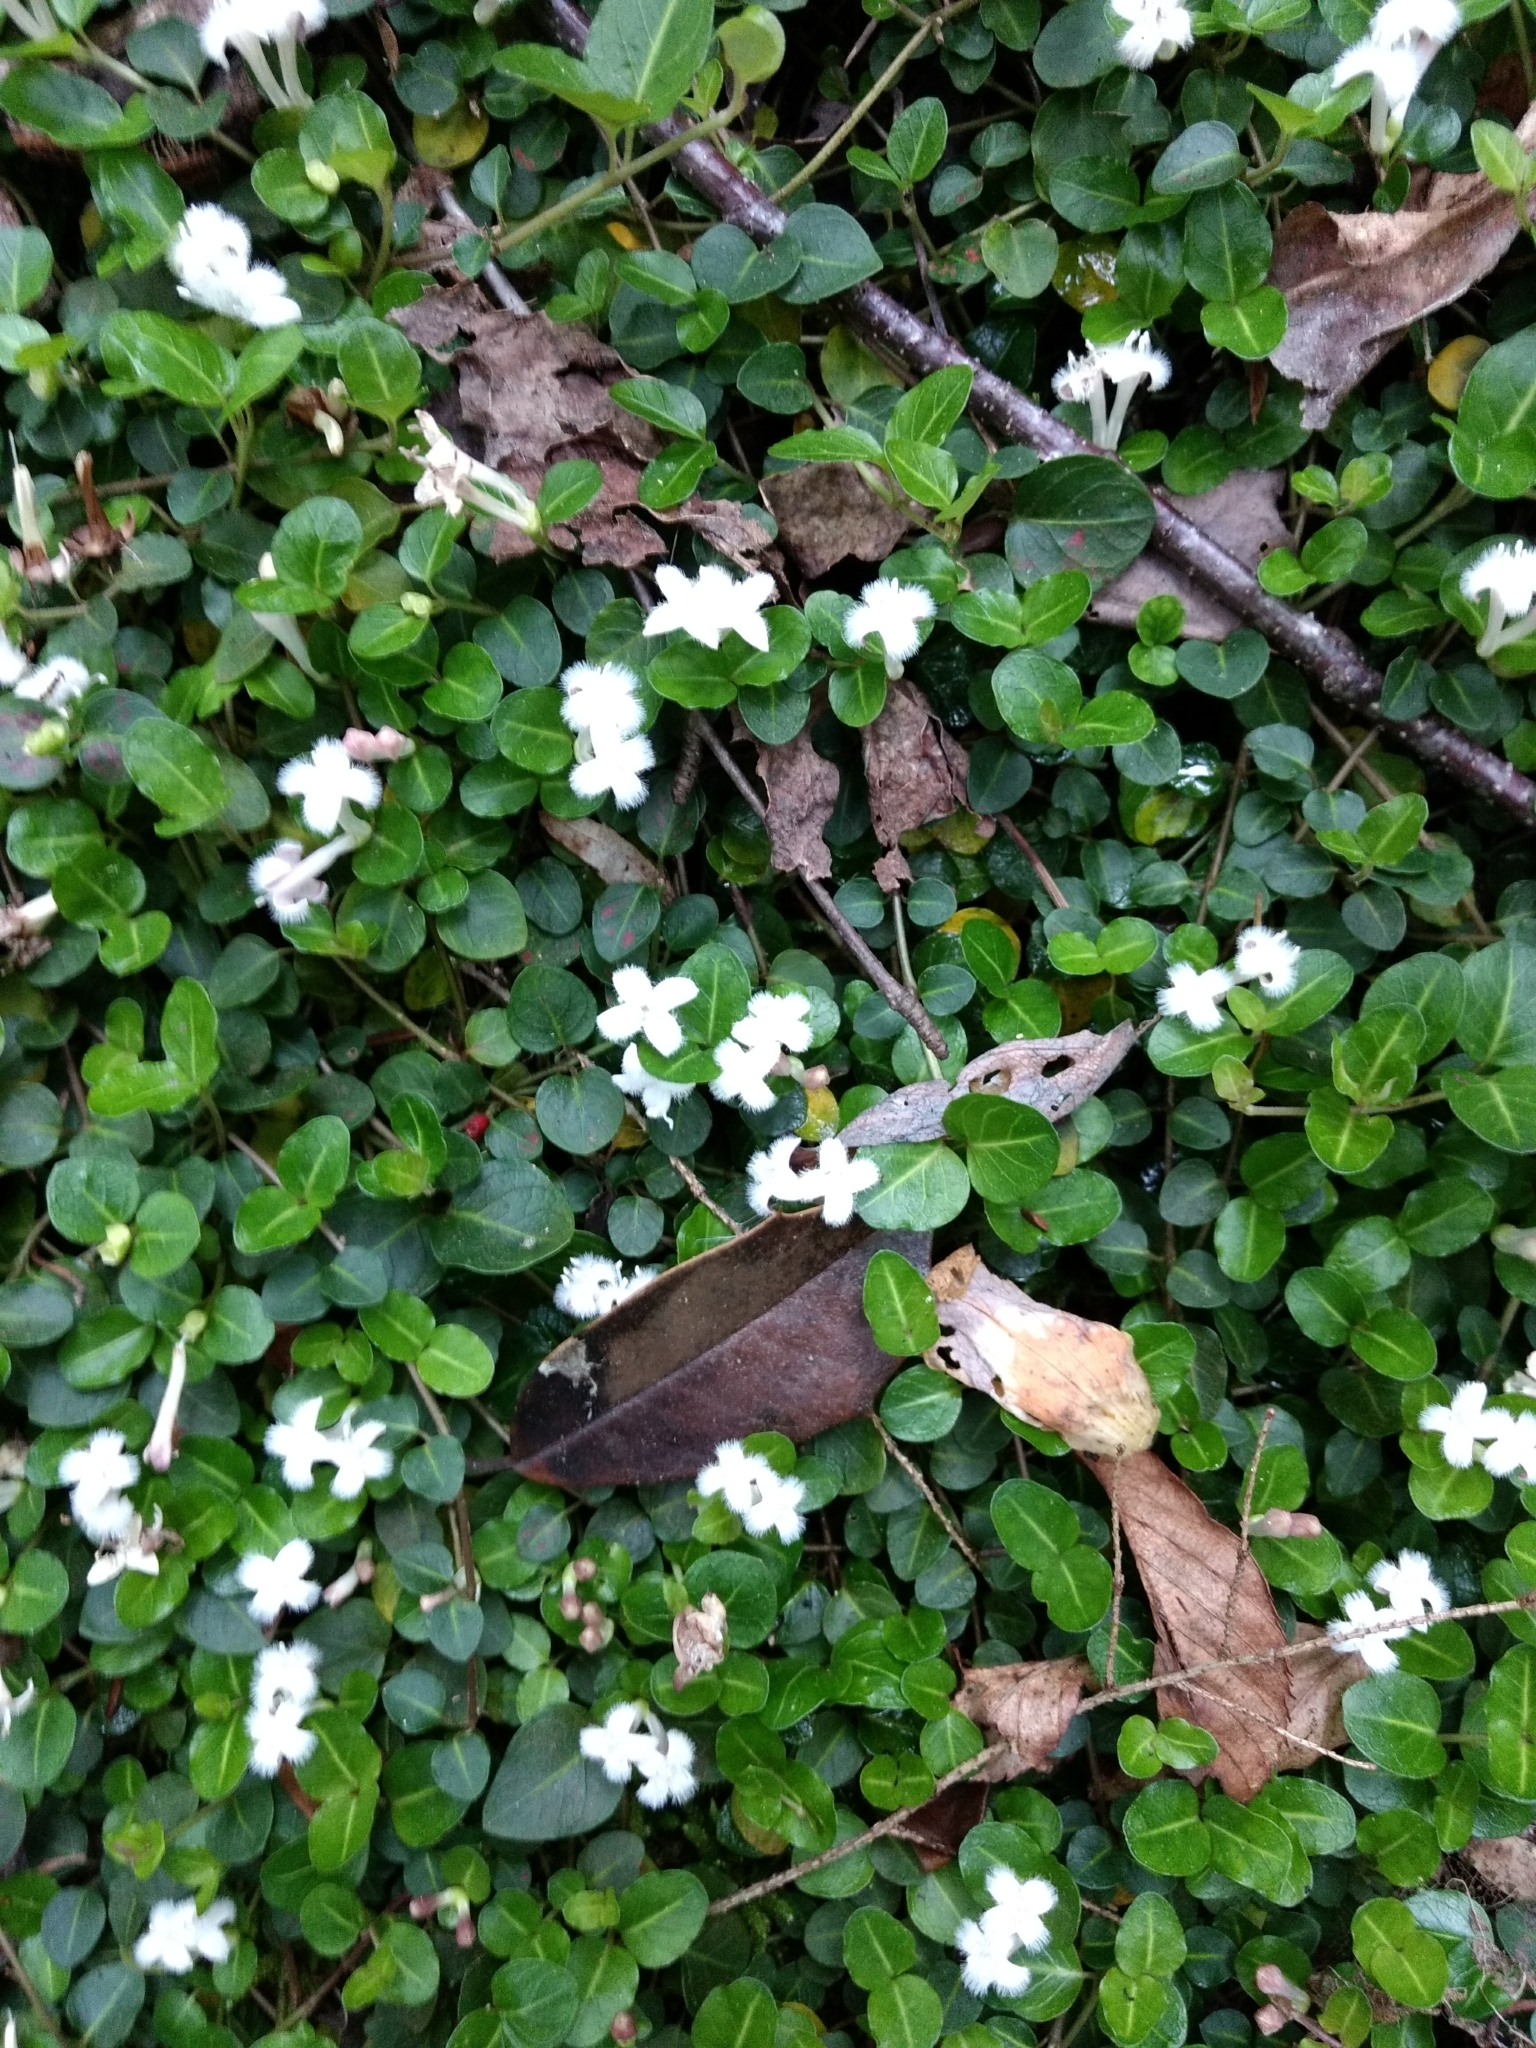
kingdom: Plantae
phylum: Tracheophyta
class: Magnoliopsida
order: Gentianales
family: Rubiaceae
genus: Mitchella
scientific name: Mitchella repens
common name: Partridge-berry
